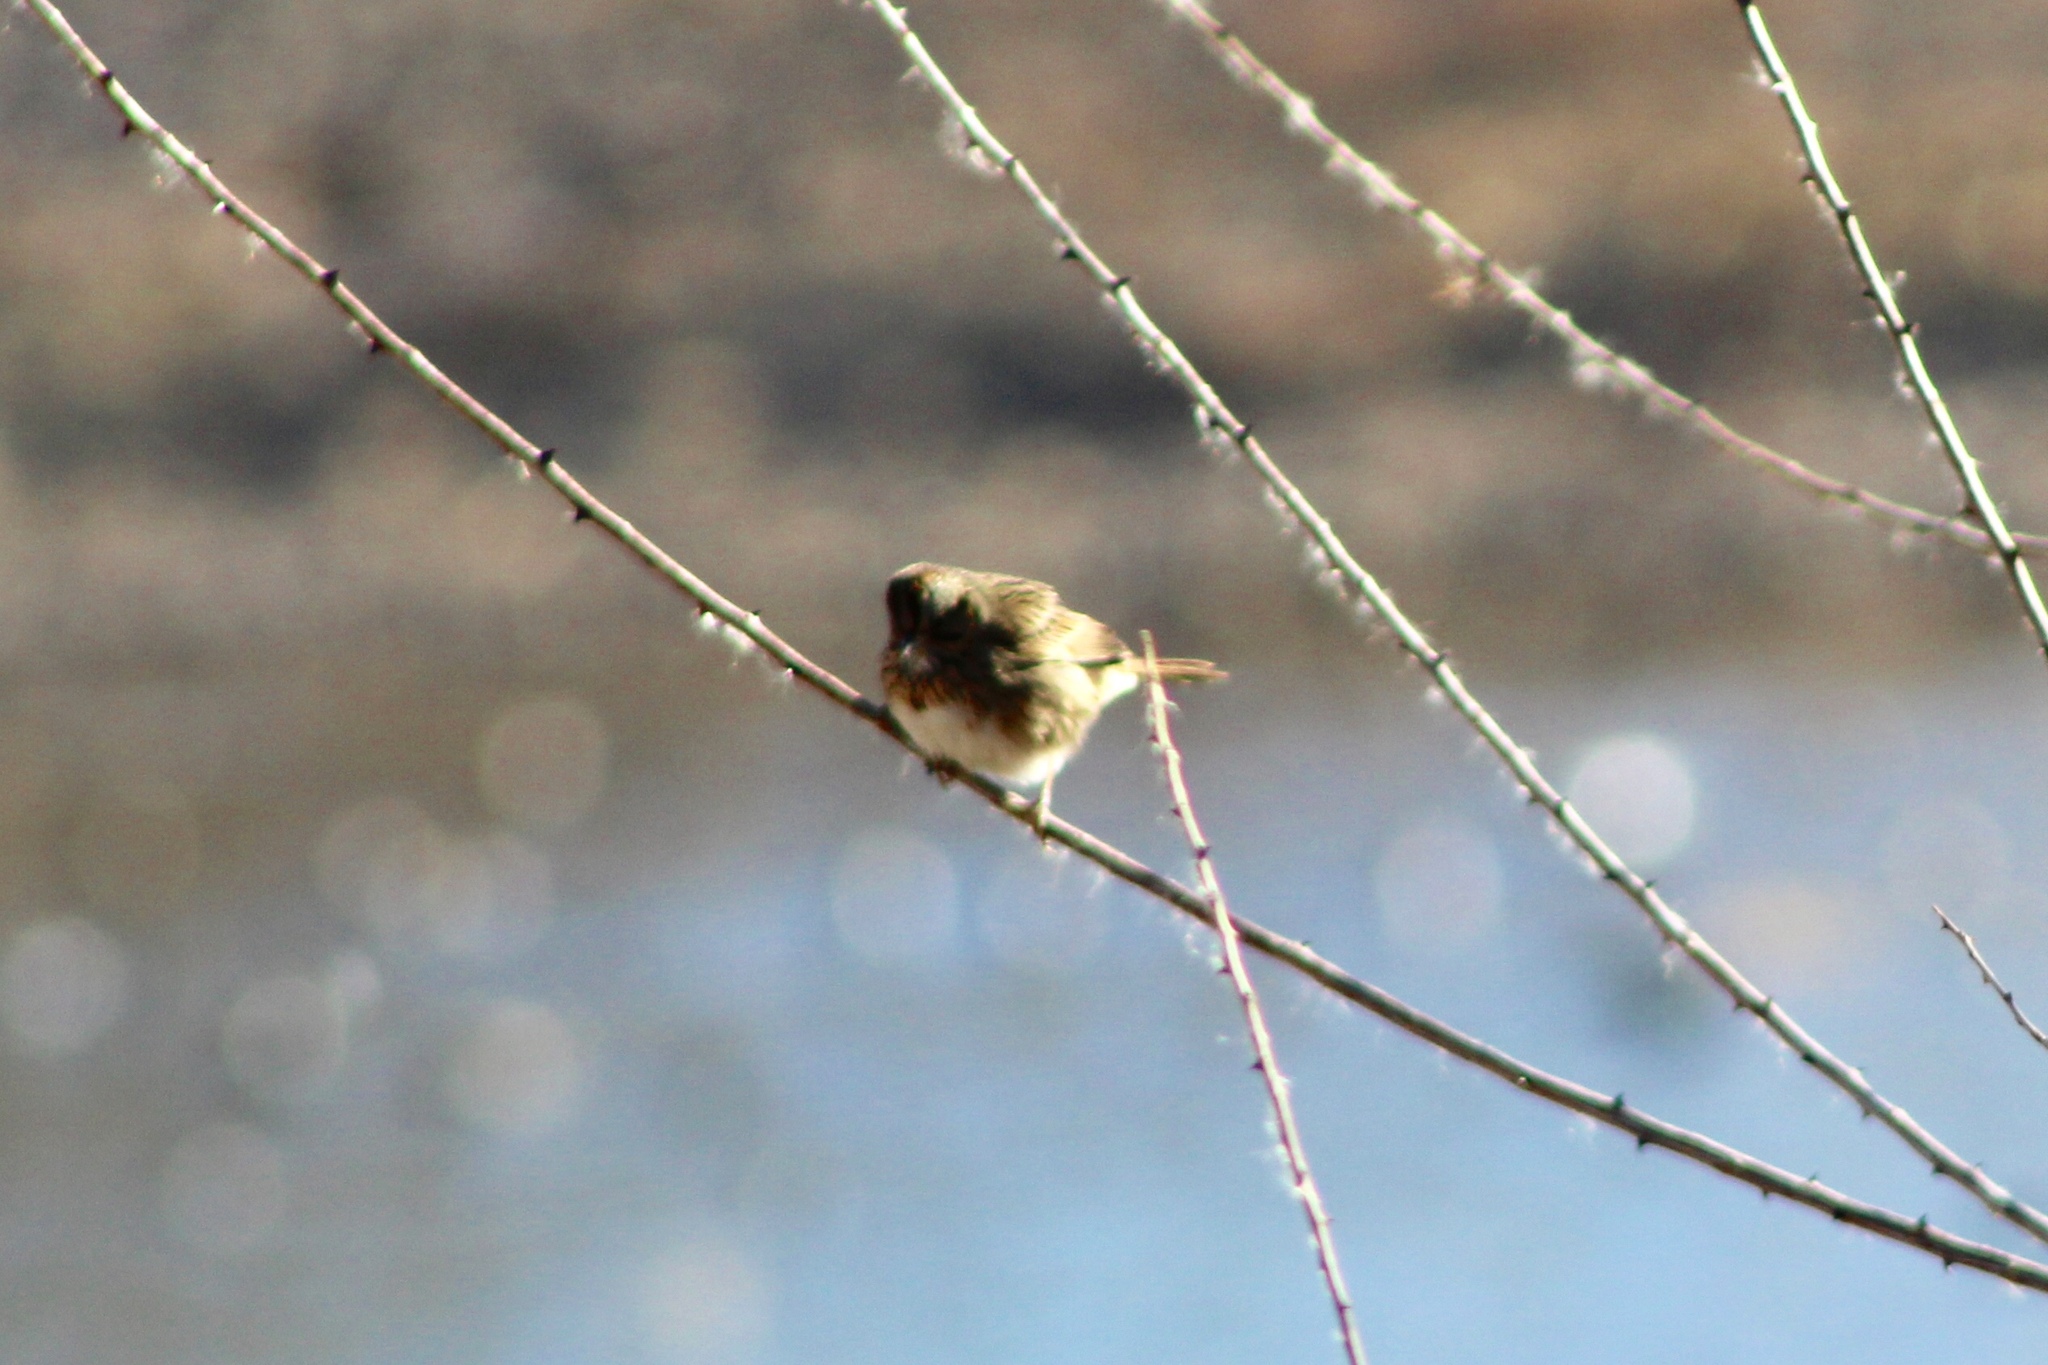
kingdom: Animalia
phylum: Chordata
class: Aves
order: Passeriformes
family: Passerellidae
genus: Melospiza
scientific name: Melospiza lincolnii
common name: Lincoln's sparrow
